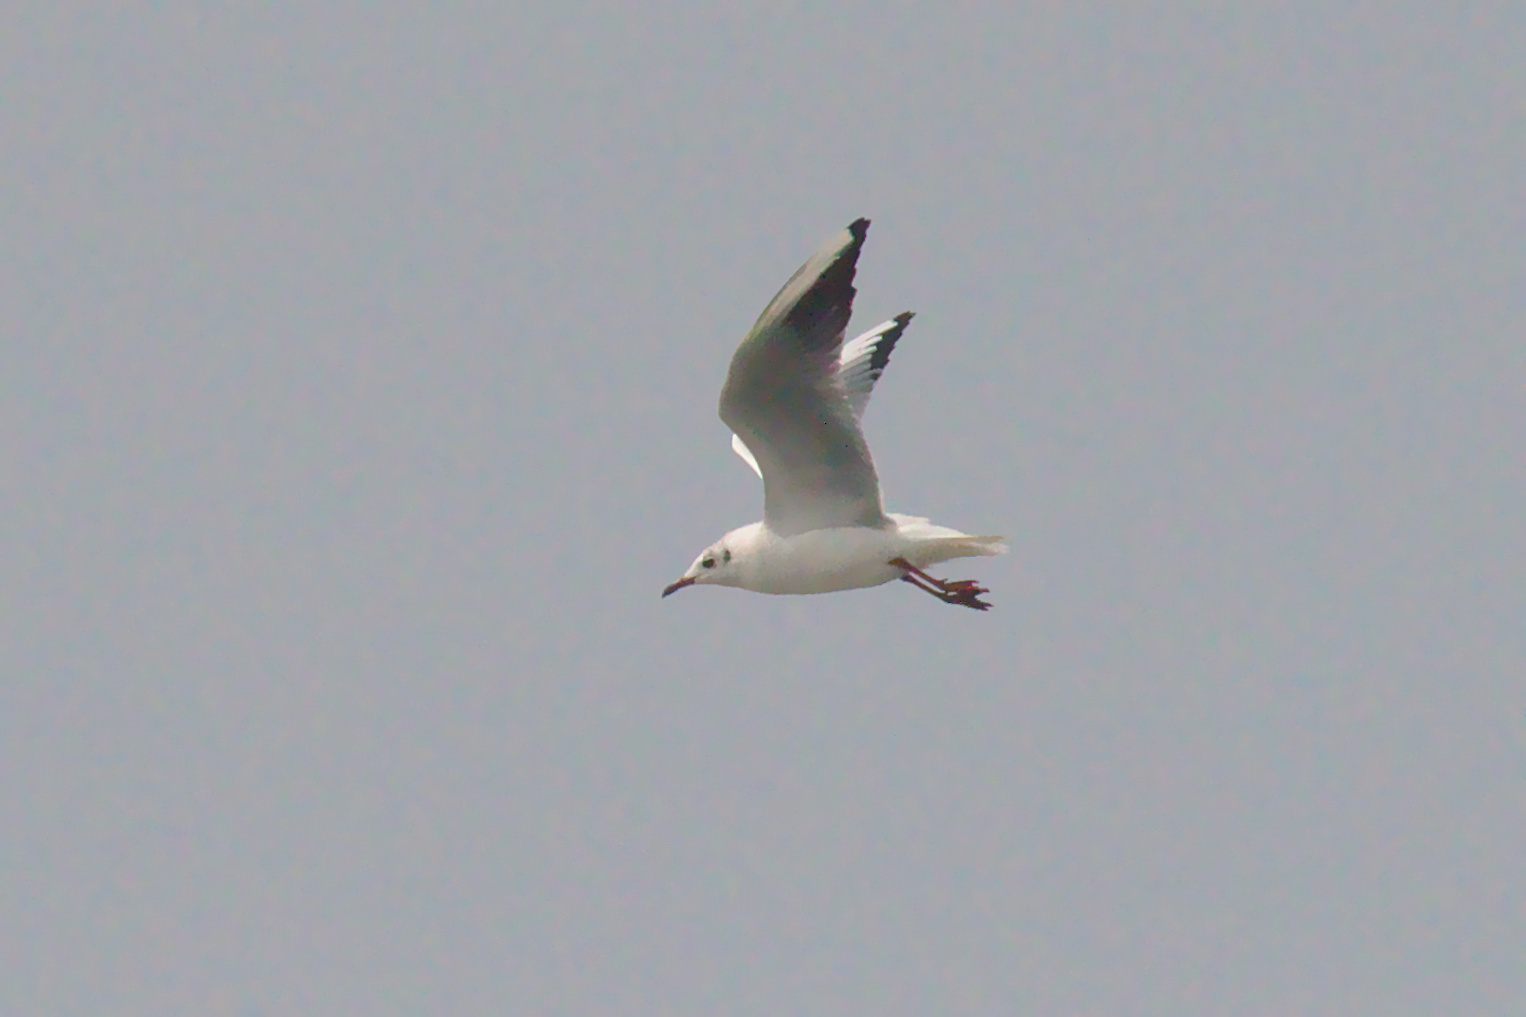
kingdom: Animalia
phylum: Chordata
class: Aves
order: Charadriiformes
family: Laridae
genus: Chroicocephalus
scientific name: Chroicocephalus ridibundus
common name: Black-headed gull
